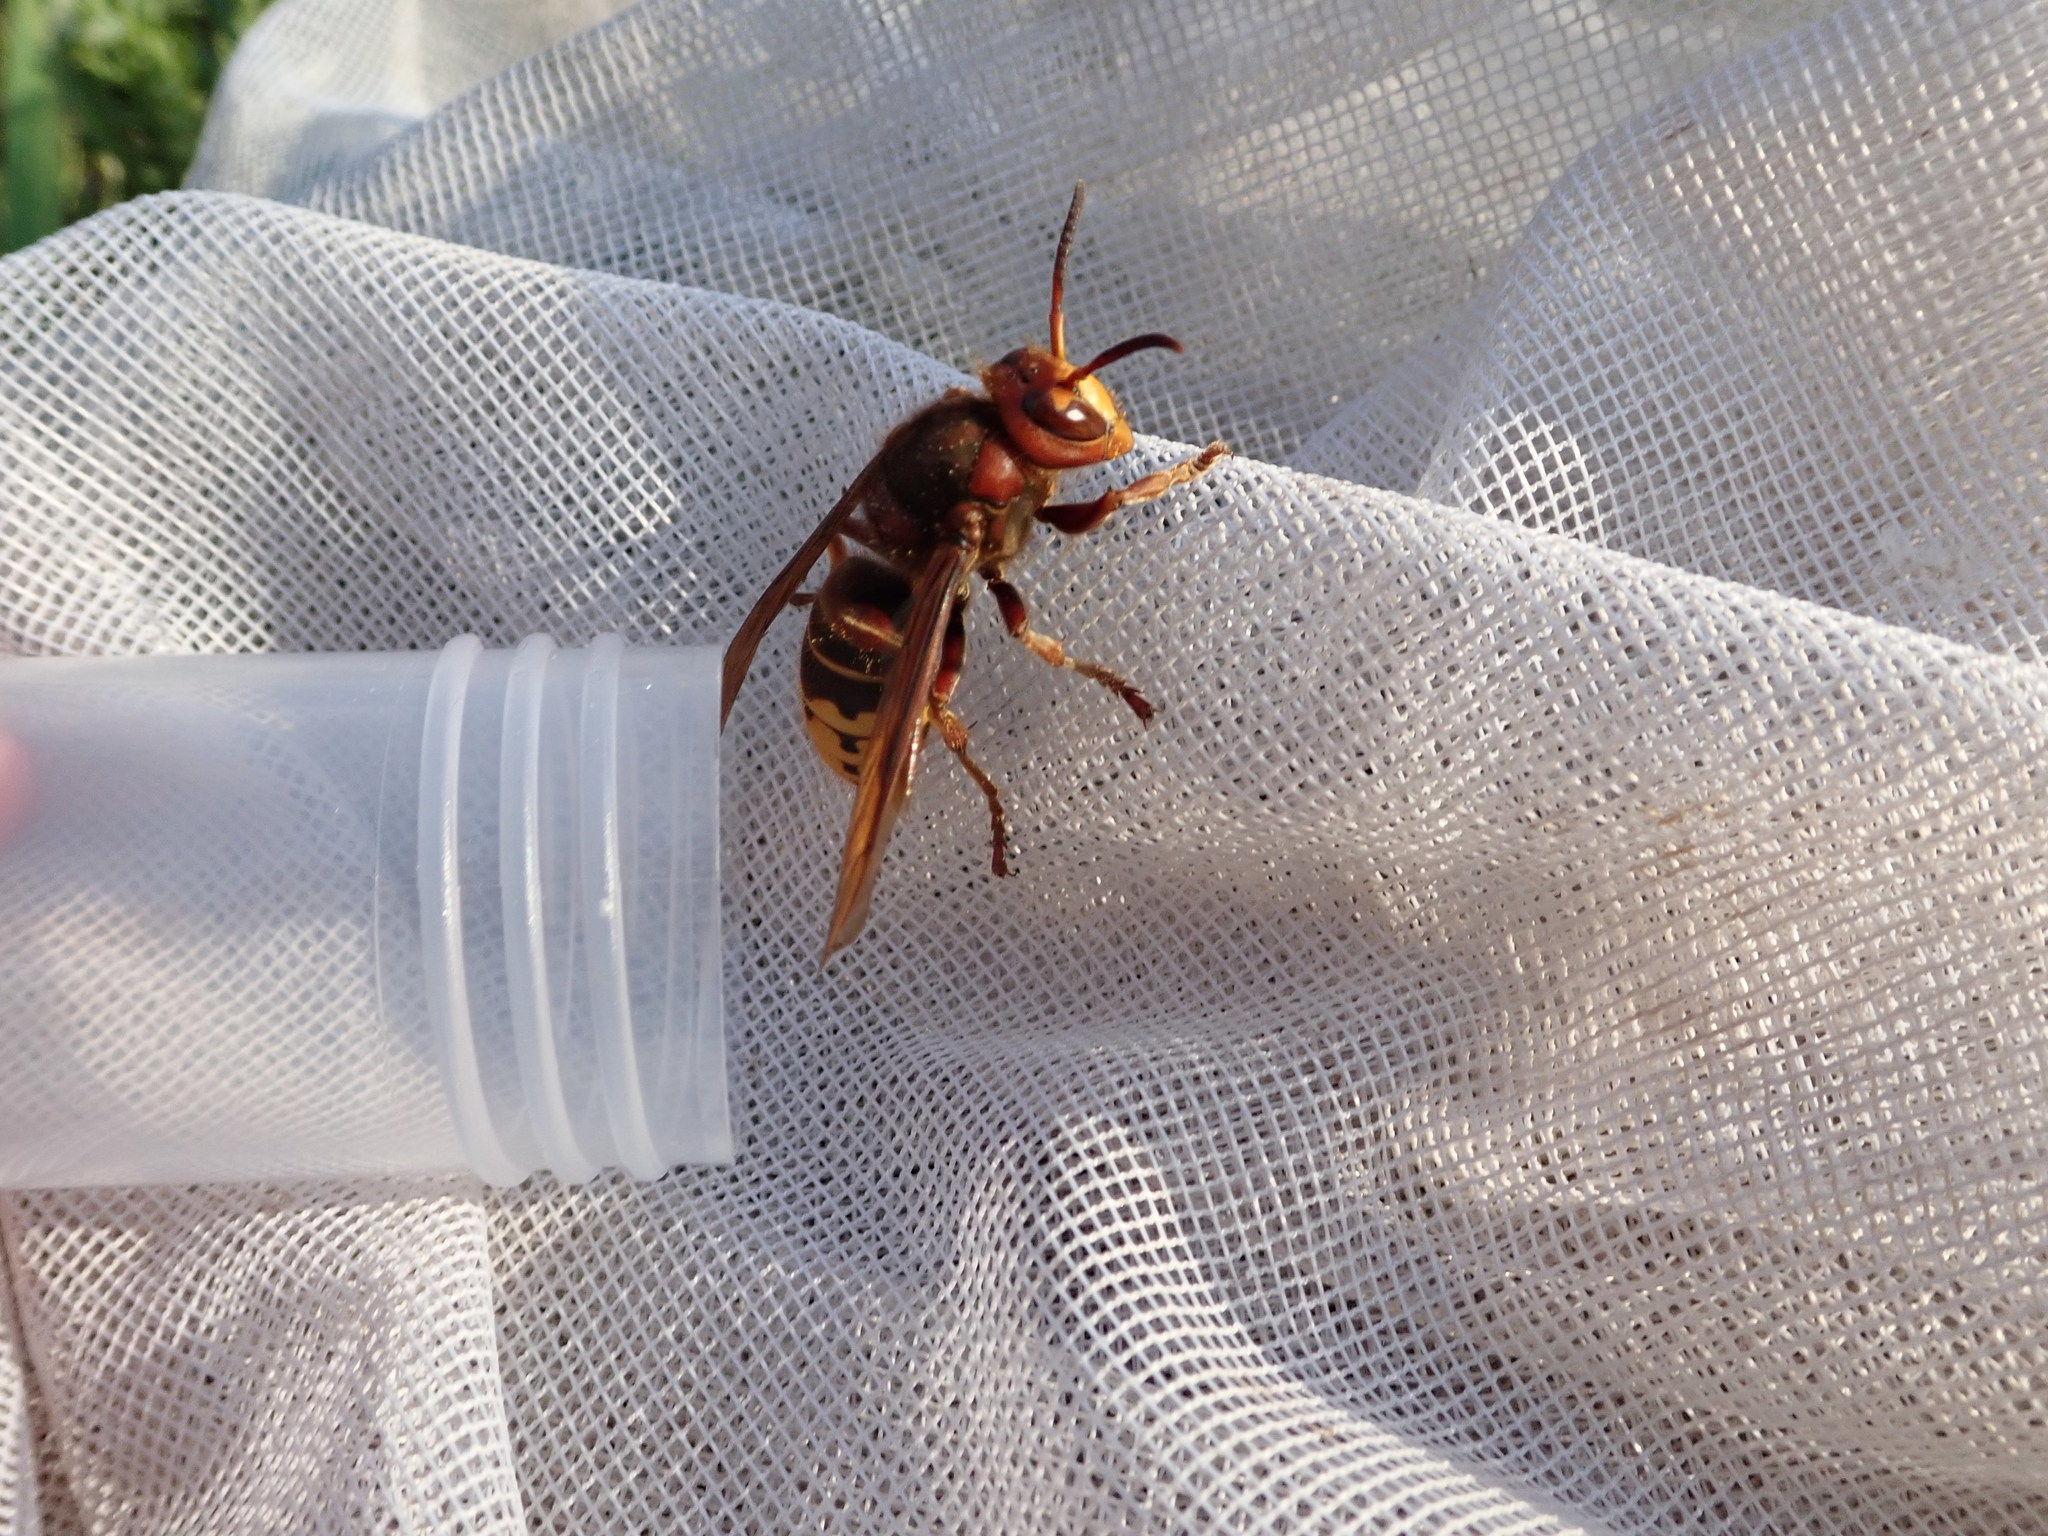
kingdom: Animalia
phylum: Arthropoda
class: Insecta
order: Hymenoptera
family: Vespidae
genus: Vespa
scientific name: Vespa crabro
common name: Hornet
